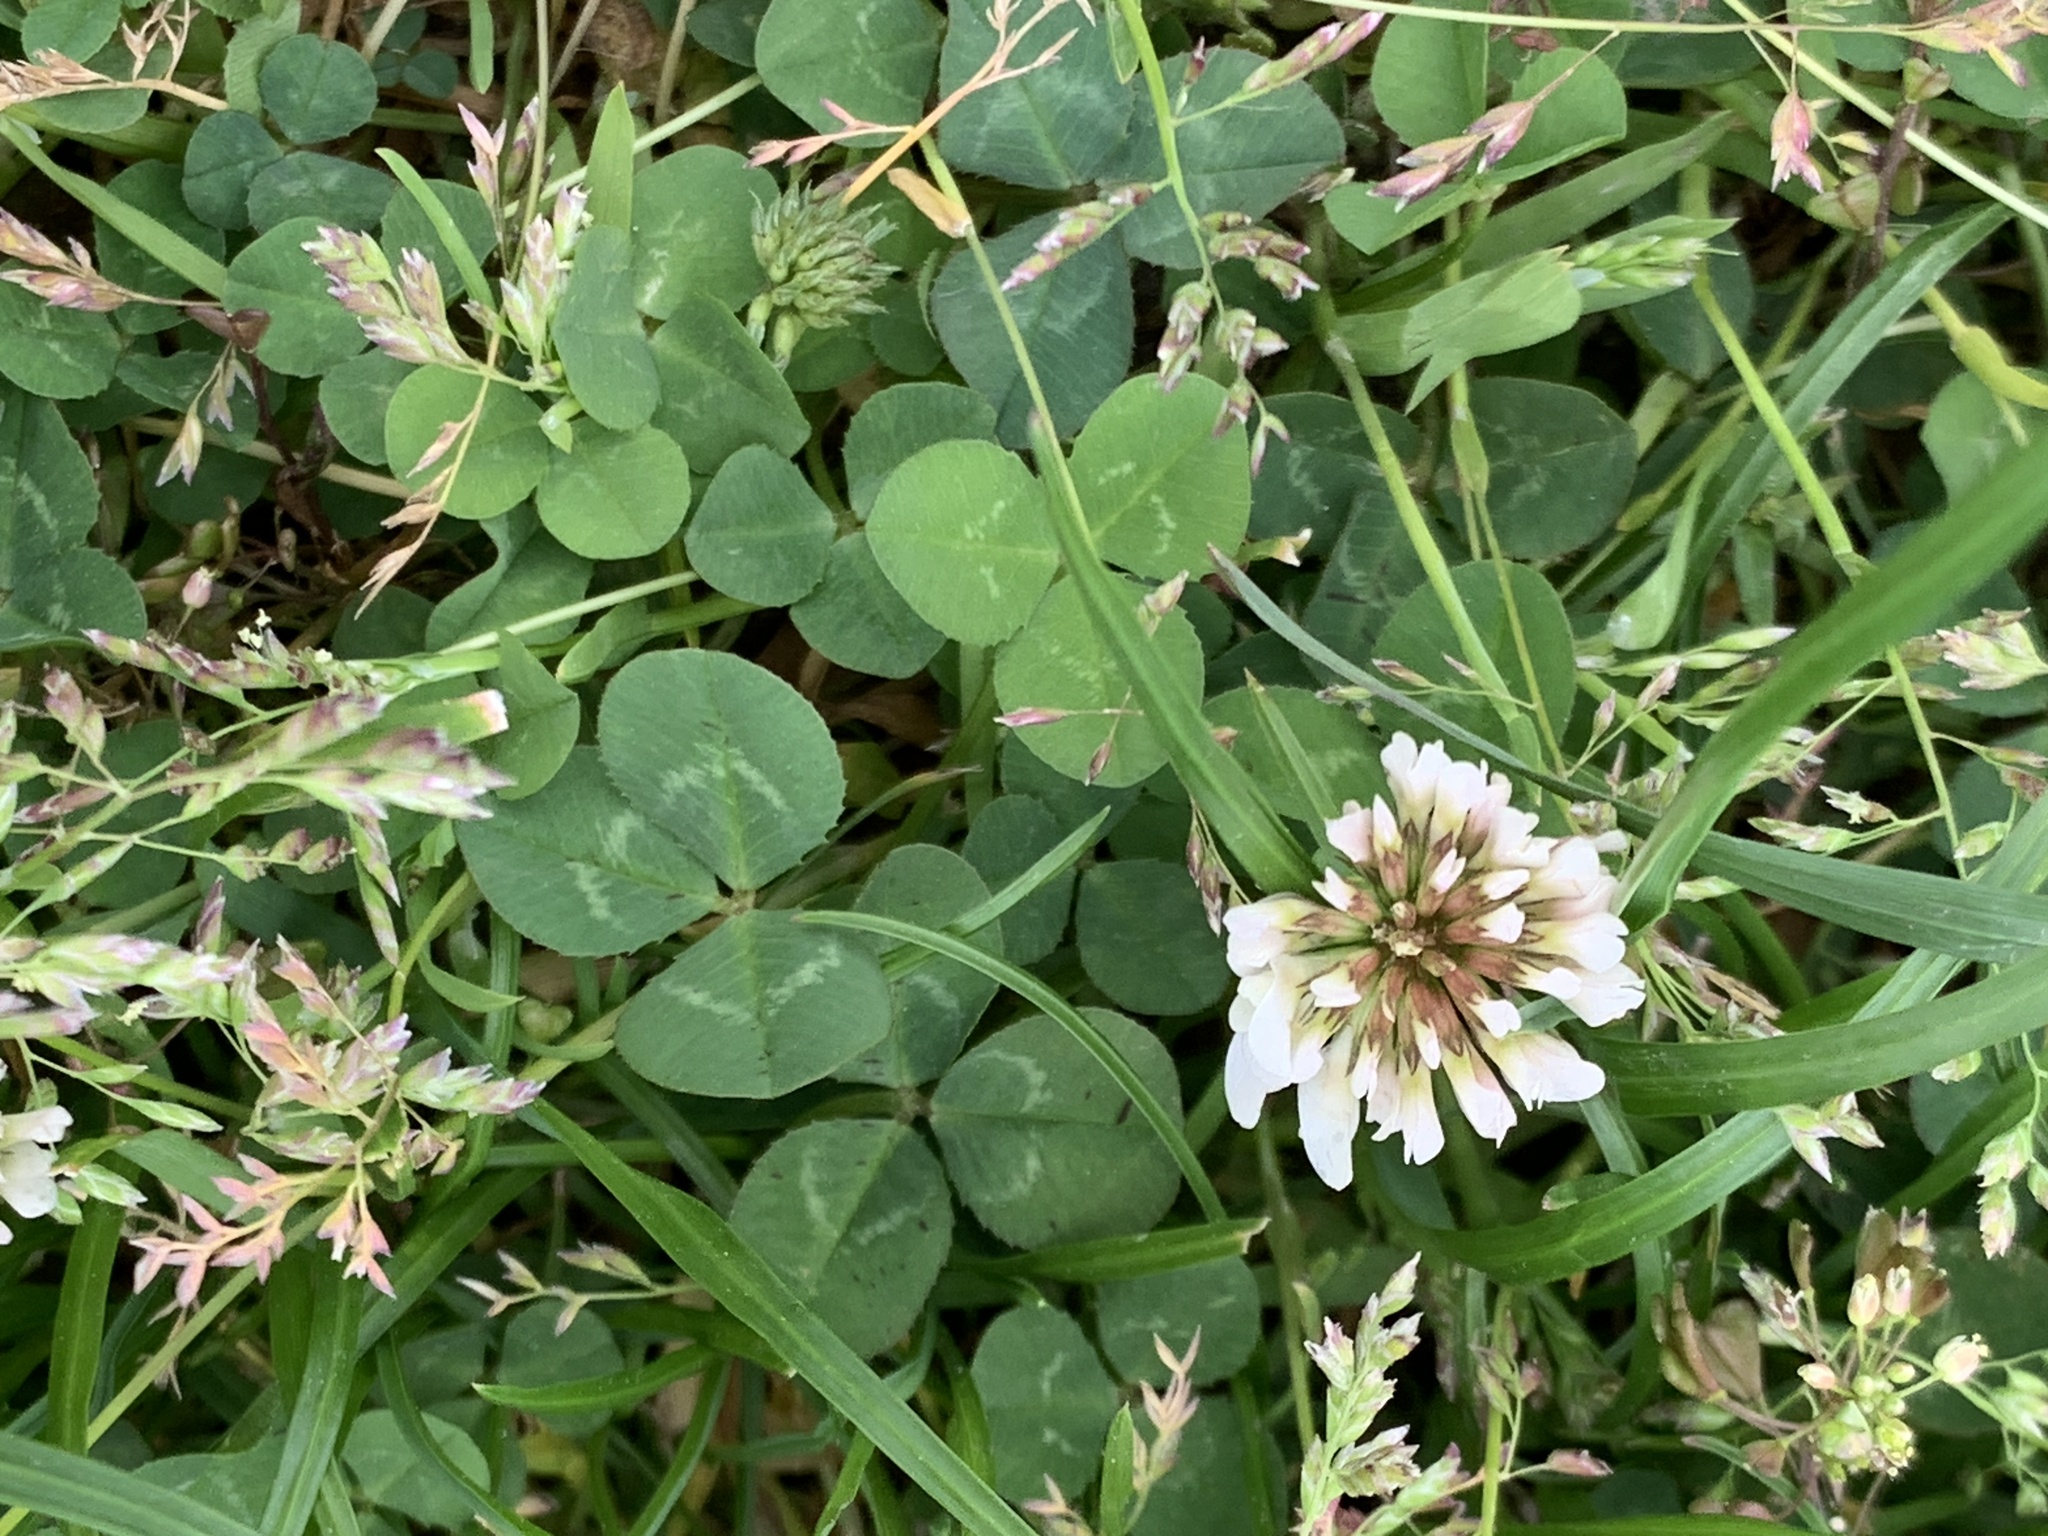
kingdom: Plantae
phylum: Tracheophyta
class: Magnoliopsida
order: Fabales
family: Fabaceae
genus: Trifolium
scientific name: Trifolium repens
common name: White clover
